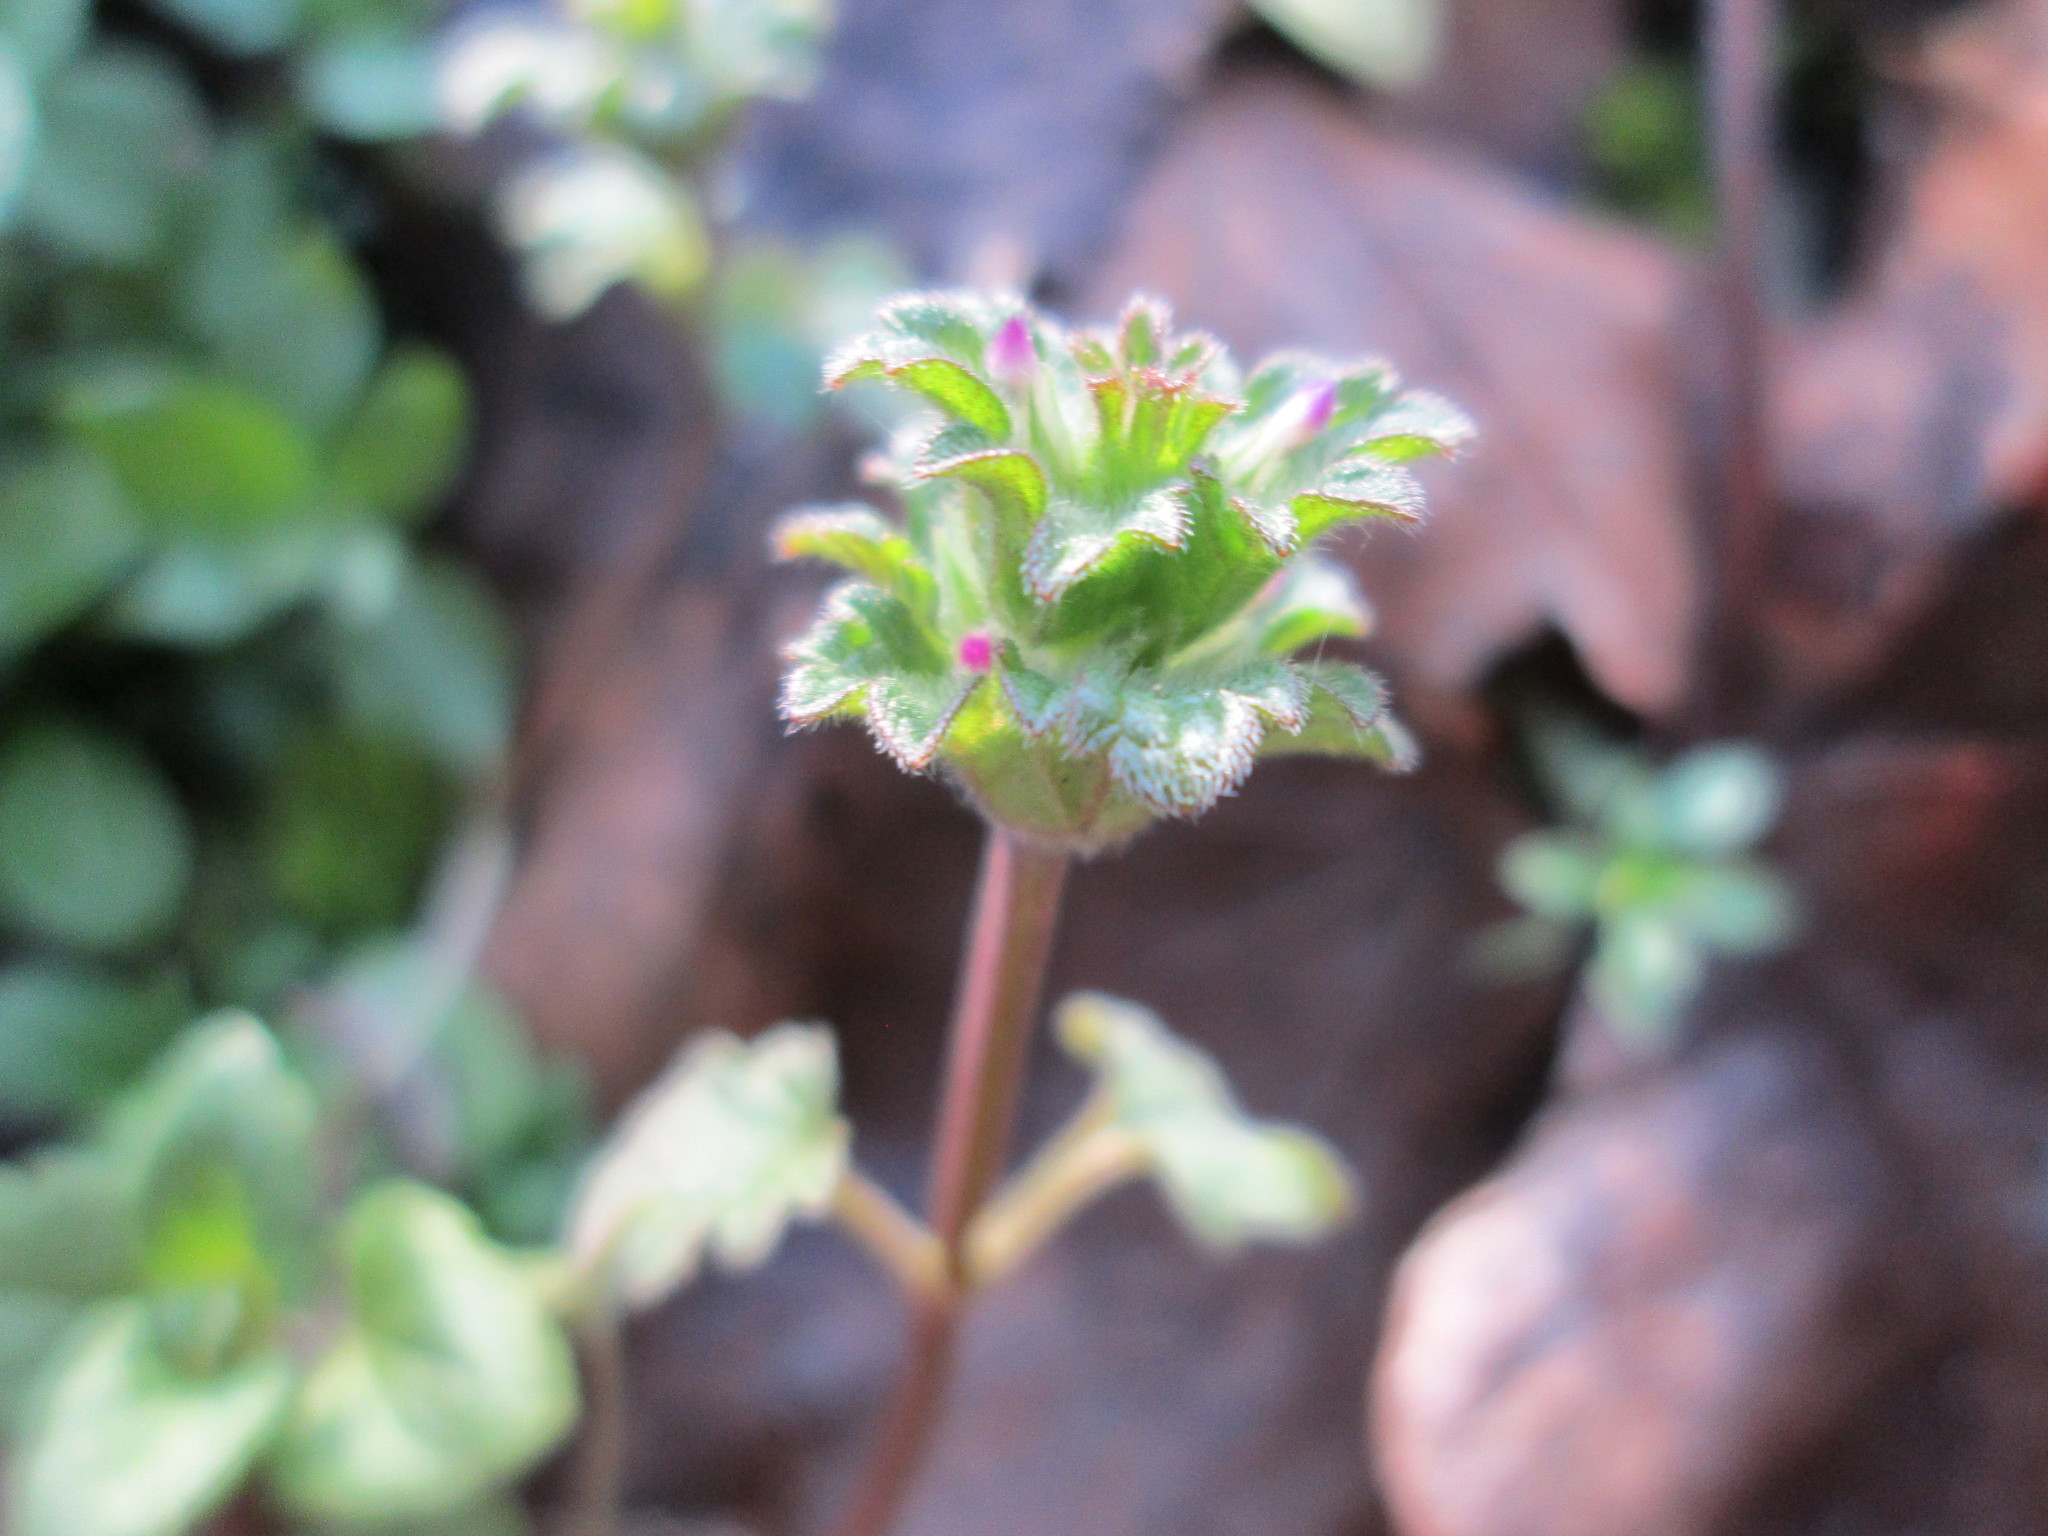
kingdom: Plantae
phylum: Tracheophyta
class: Magnoliopsida
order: Lamiales
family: Lamiaceae
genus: Lamium
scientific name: Lamium amplexicaule
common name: Henbit dead-nettle
